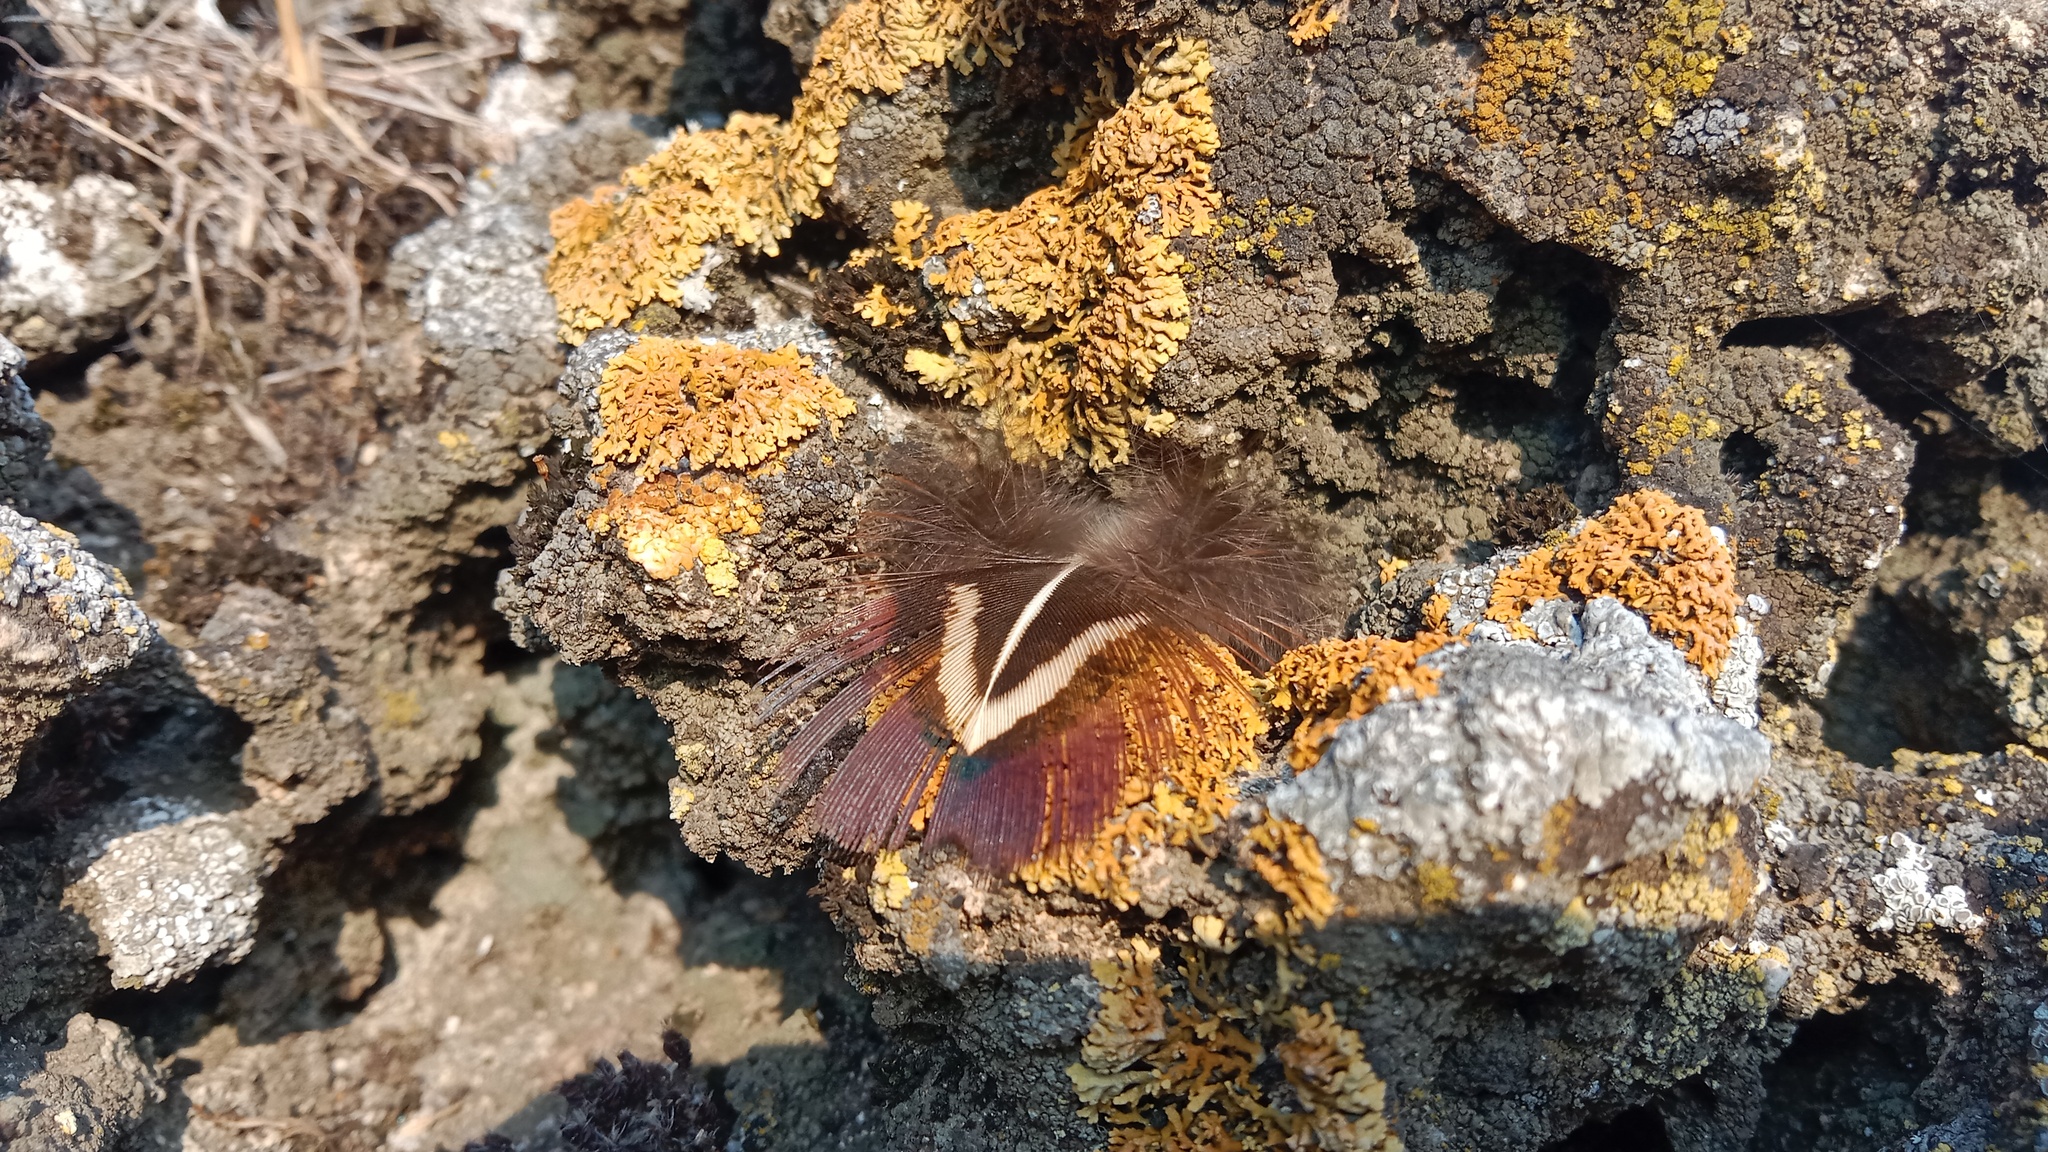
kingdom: Animalia
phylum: Chordata
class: Aves
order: Galliformes
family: Phasianidae
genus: Phasianus
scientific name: Phasianus colchicus
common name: Common pheasant
